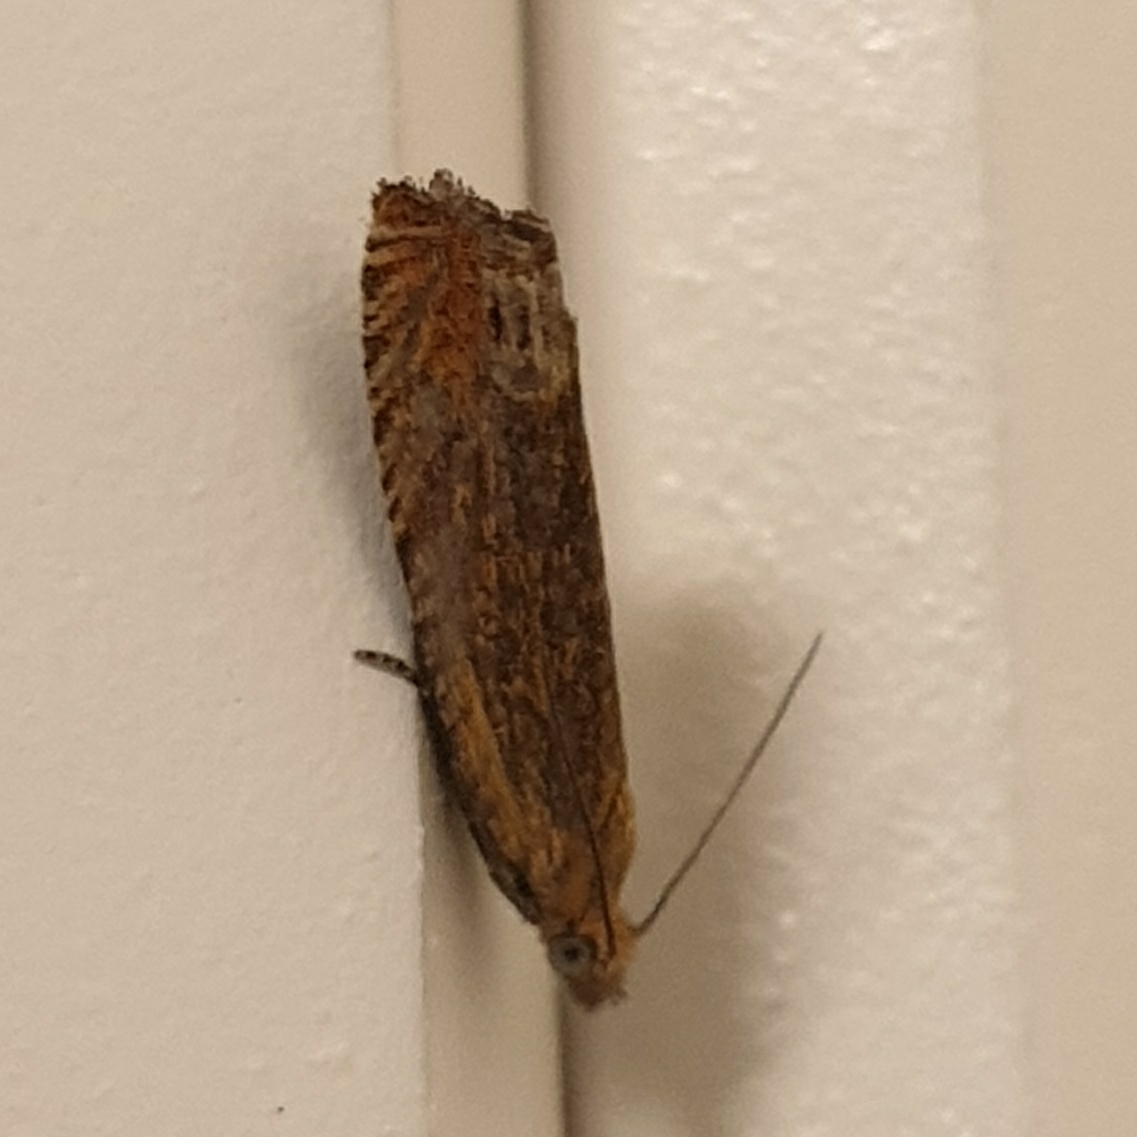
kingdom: Animalia
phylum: Arthropoda
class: Insecta
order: Lepidoptera
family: Tortricidae
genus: Lathronympha
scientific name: Lathronympha strigana
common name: Red piercer
